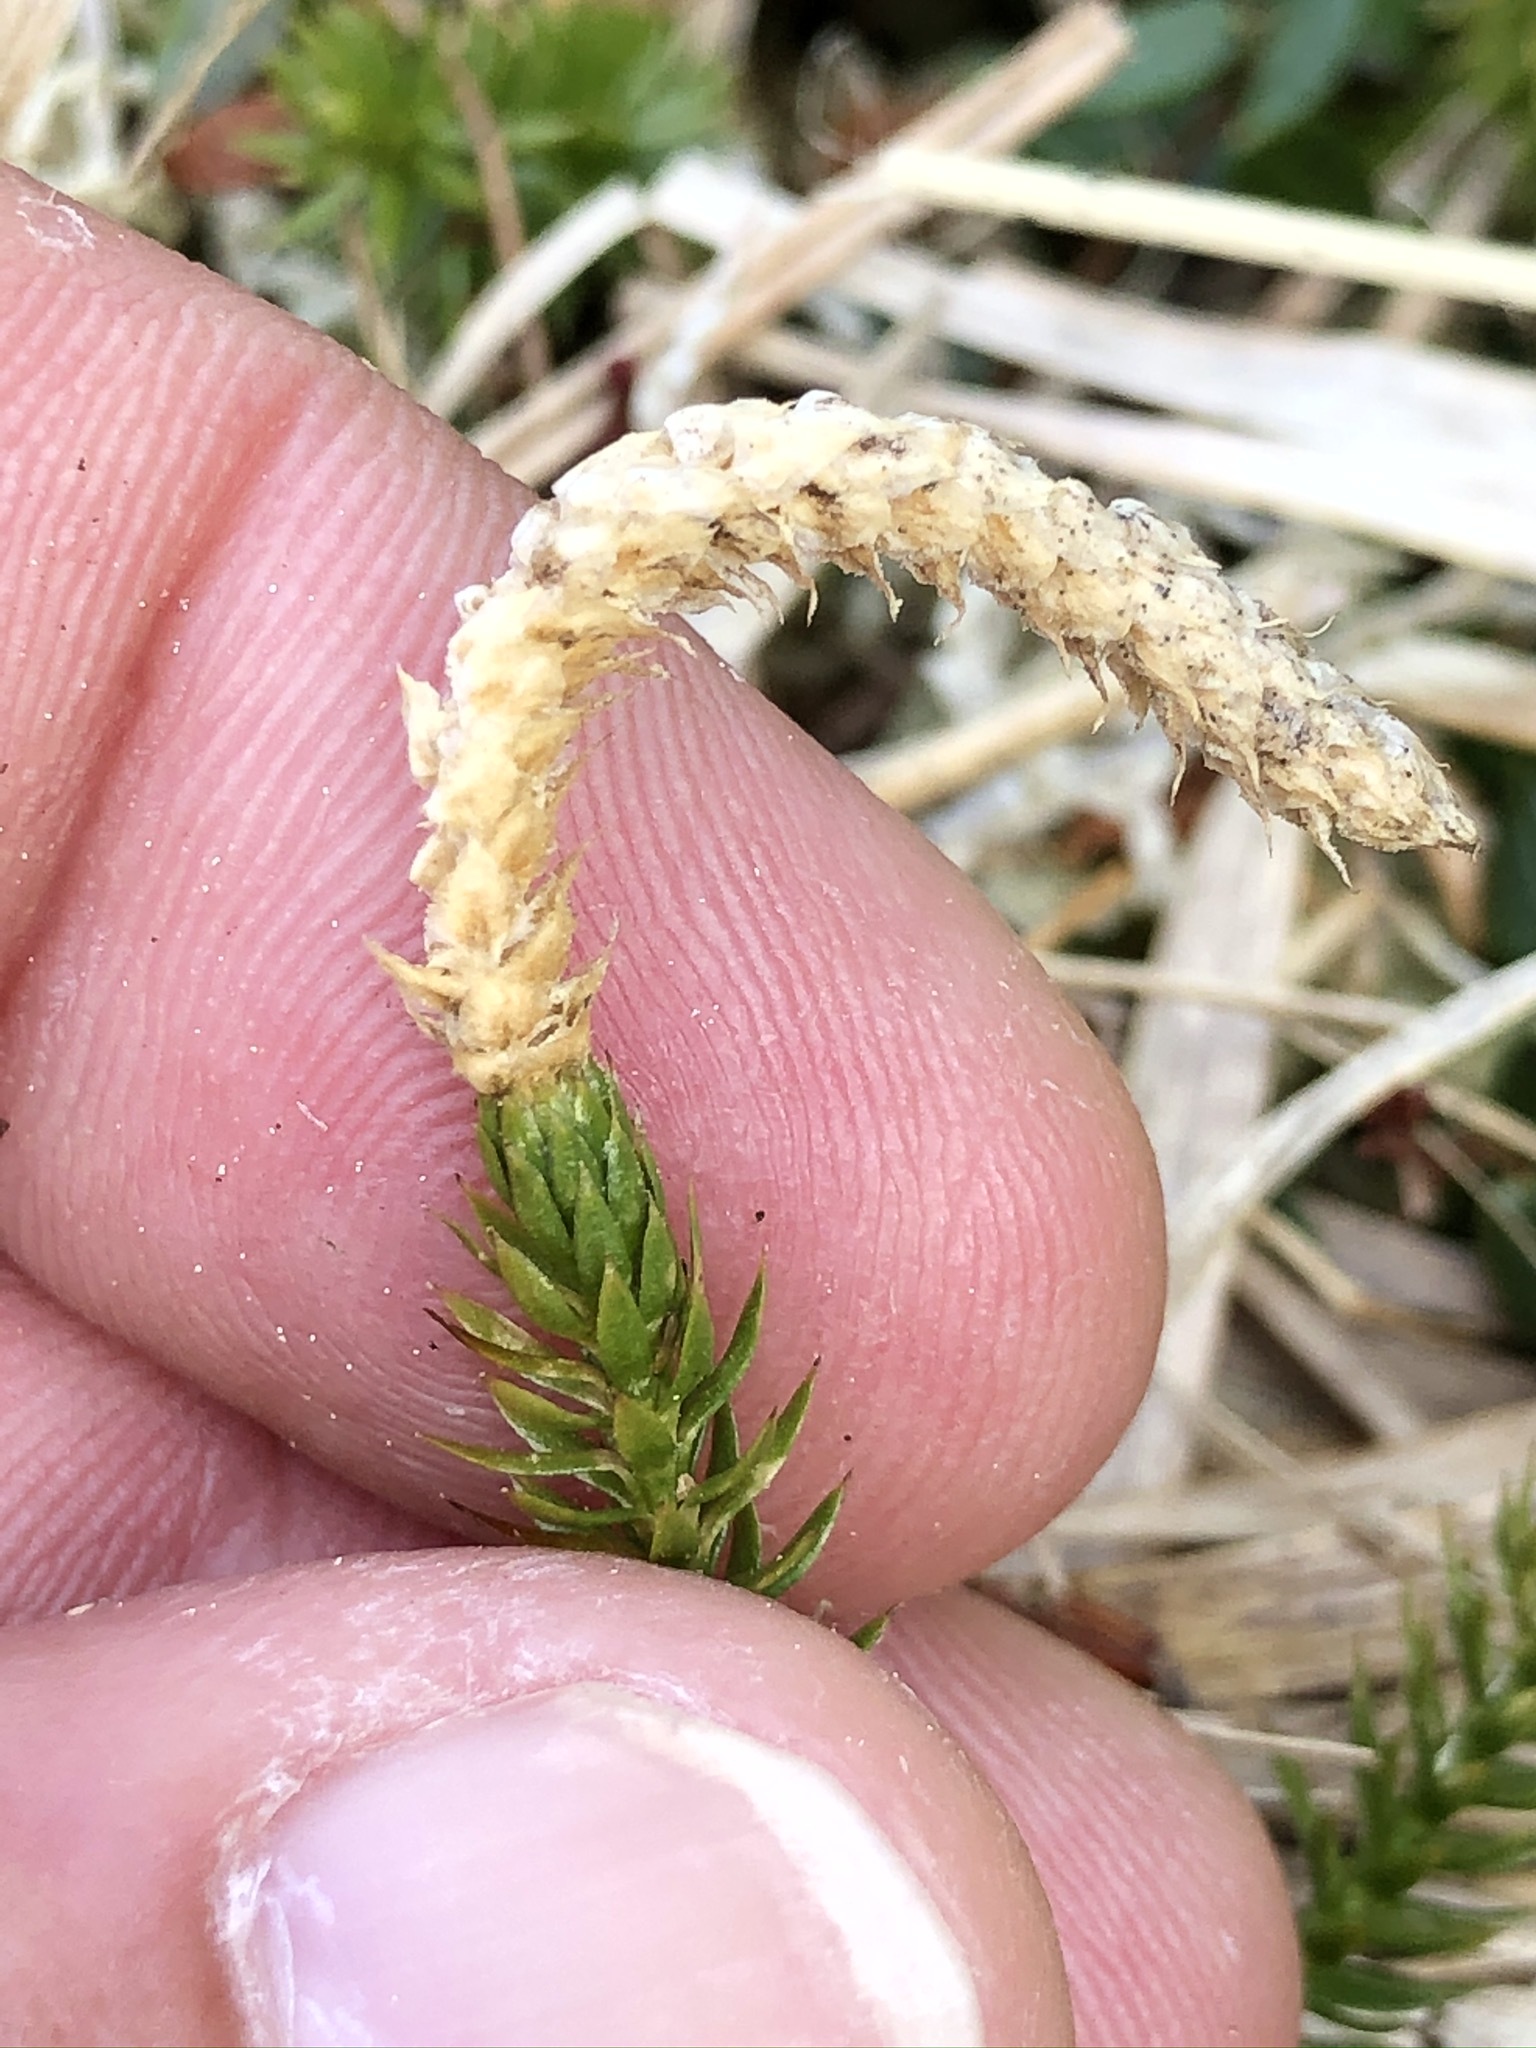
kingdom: Plantae
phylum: Tracheophyta
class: Lycopodiopsida
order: Lycopodiales
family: Lycopodiaceae
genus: Spinulum
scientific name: Spinulum annotinum
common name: Interrupted club-moss
